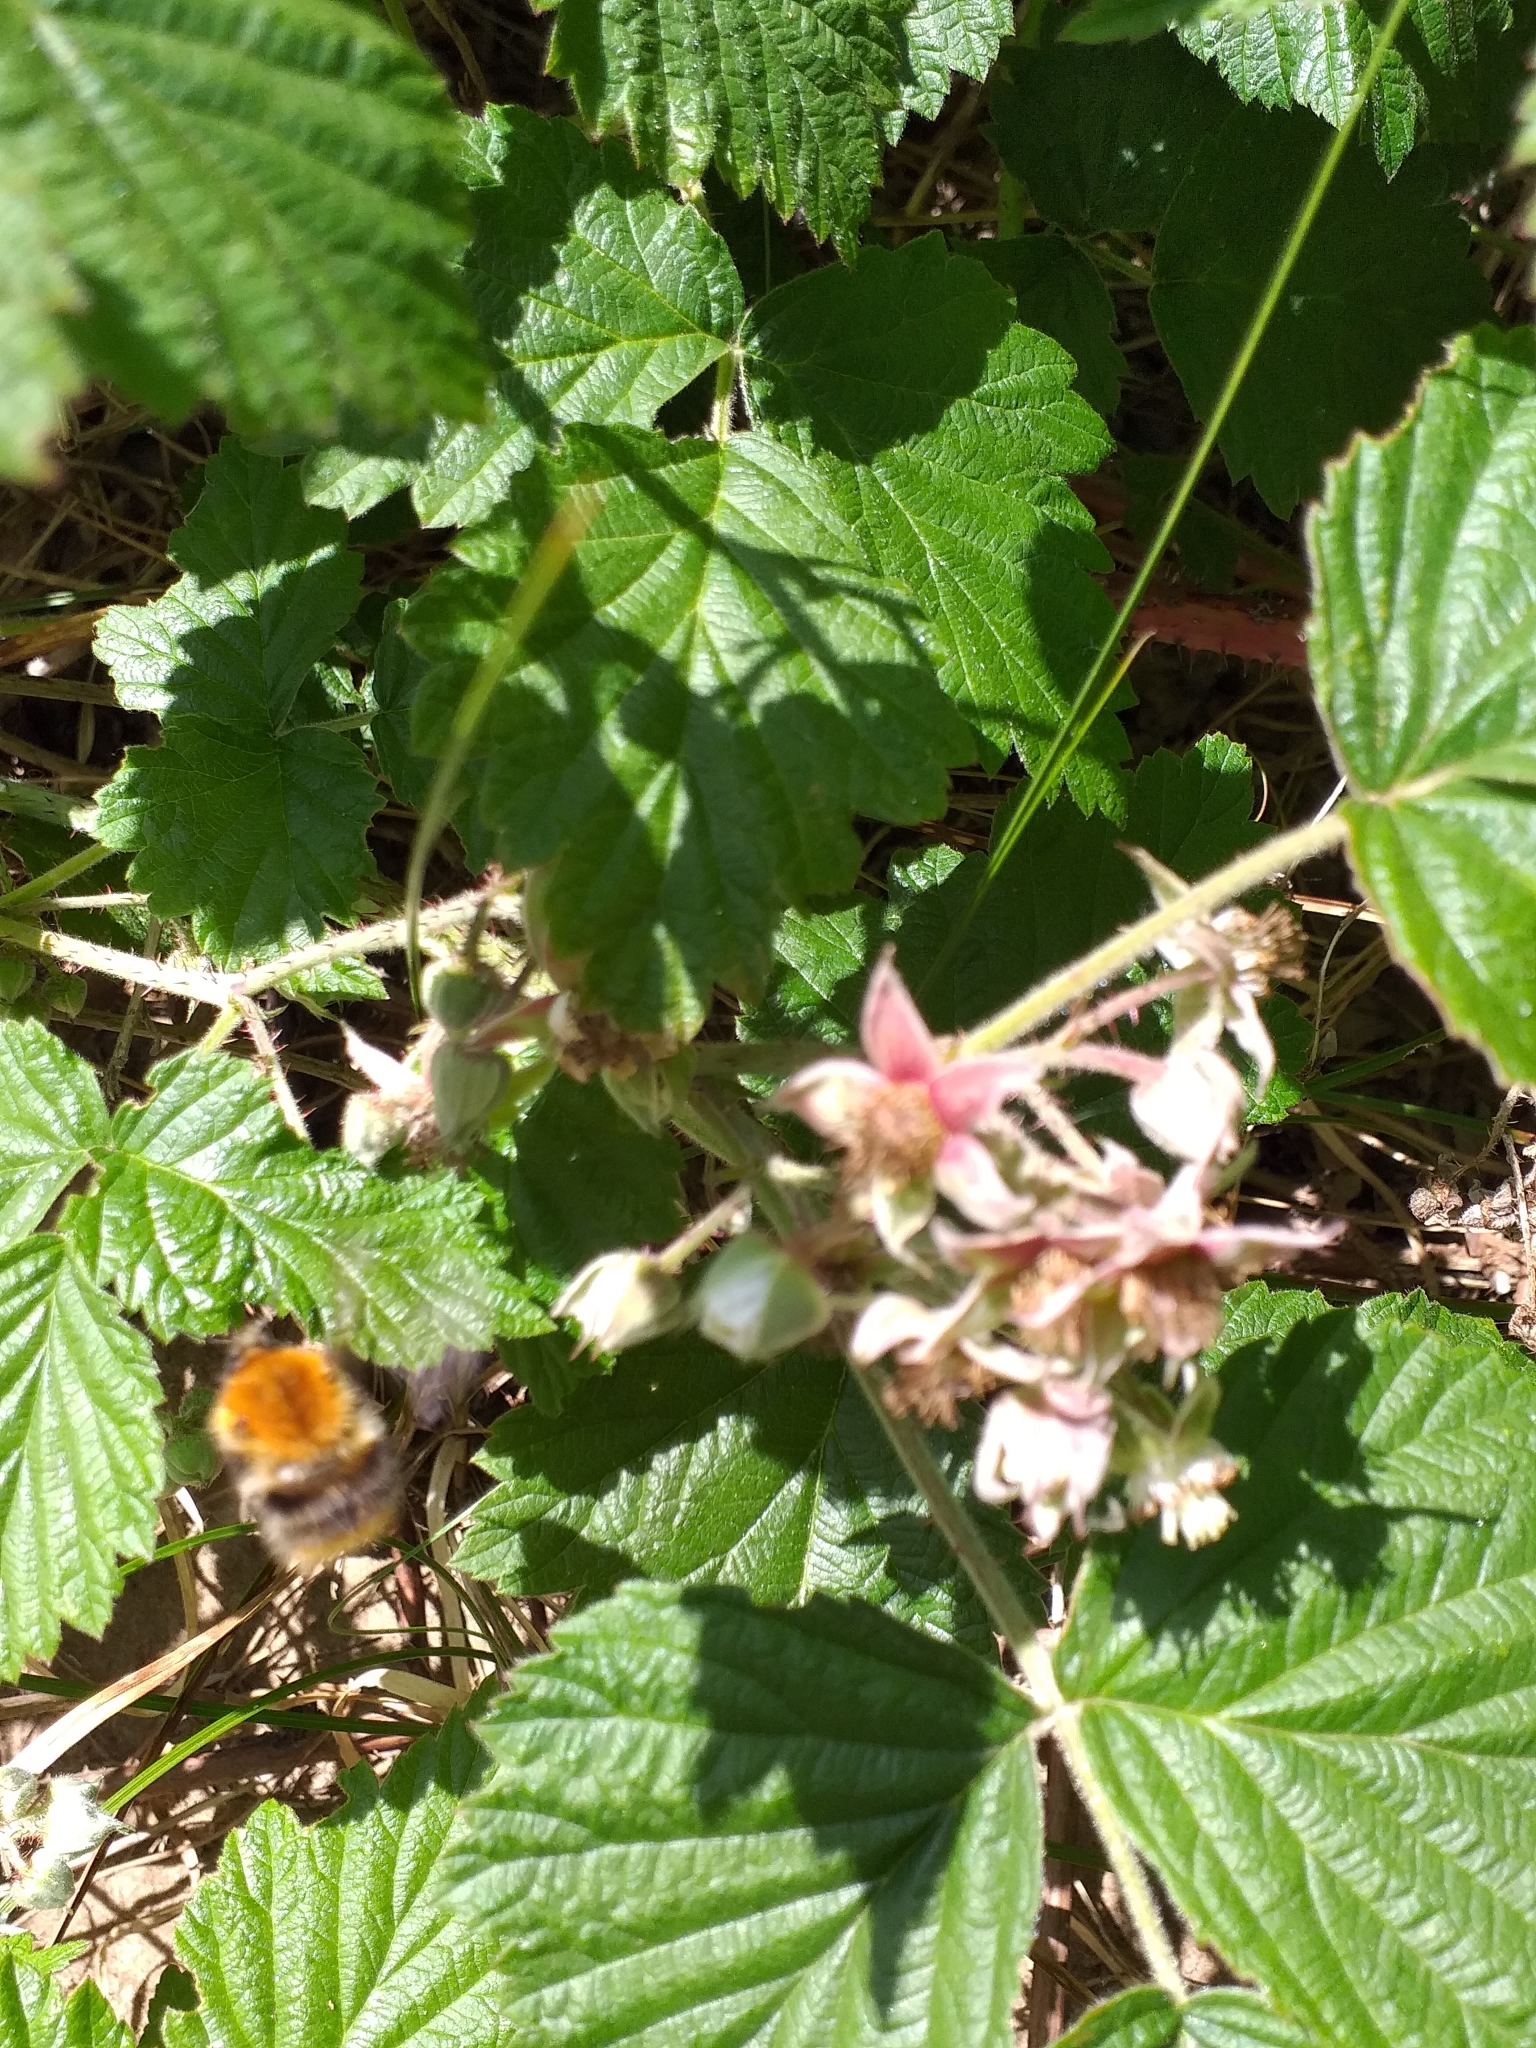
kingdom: Animalia
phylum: Arthropoda
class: Insecta
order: Hymenoptera
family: Apidae
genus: Bombus
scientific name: Bombus pascuorum
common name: Common carder bee
